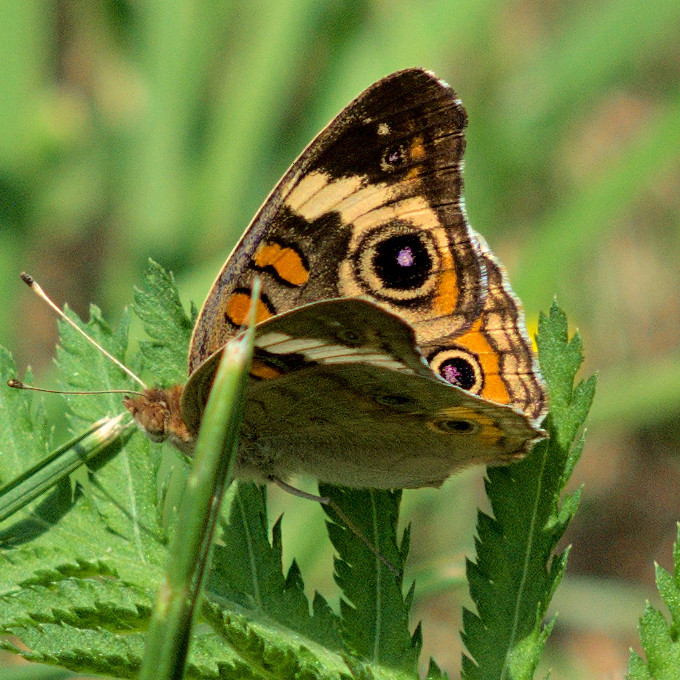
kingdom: Animalia
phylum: Arthropoda
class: Insecta
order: Lepidoptera
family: Nymphalidae
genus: Junonia
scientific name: Junonia coenia
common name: Common buckeye
